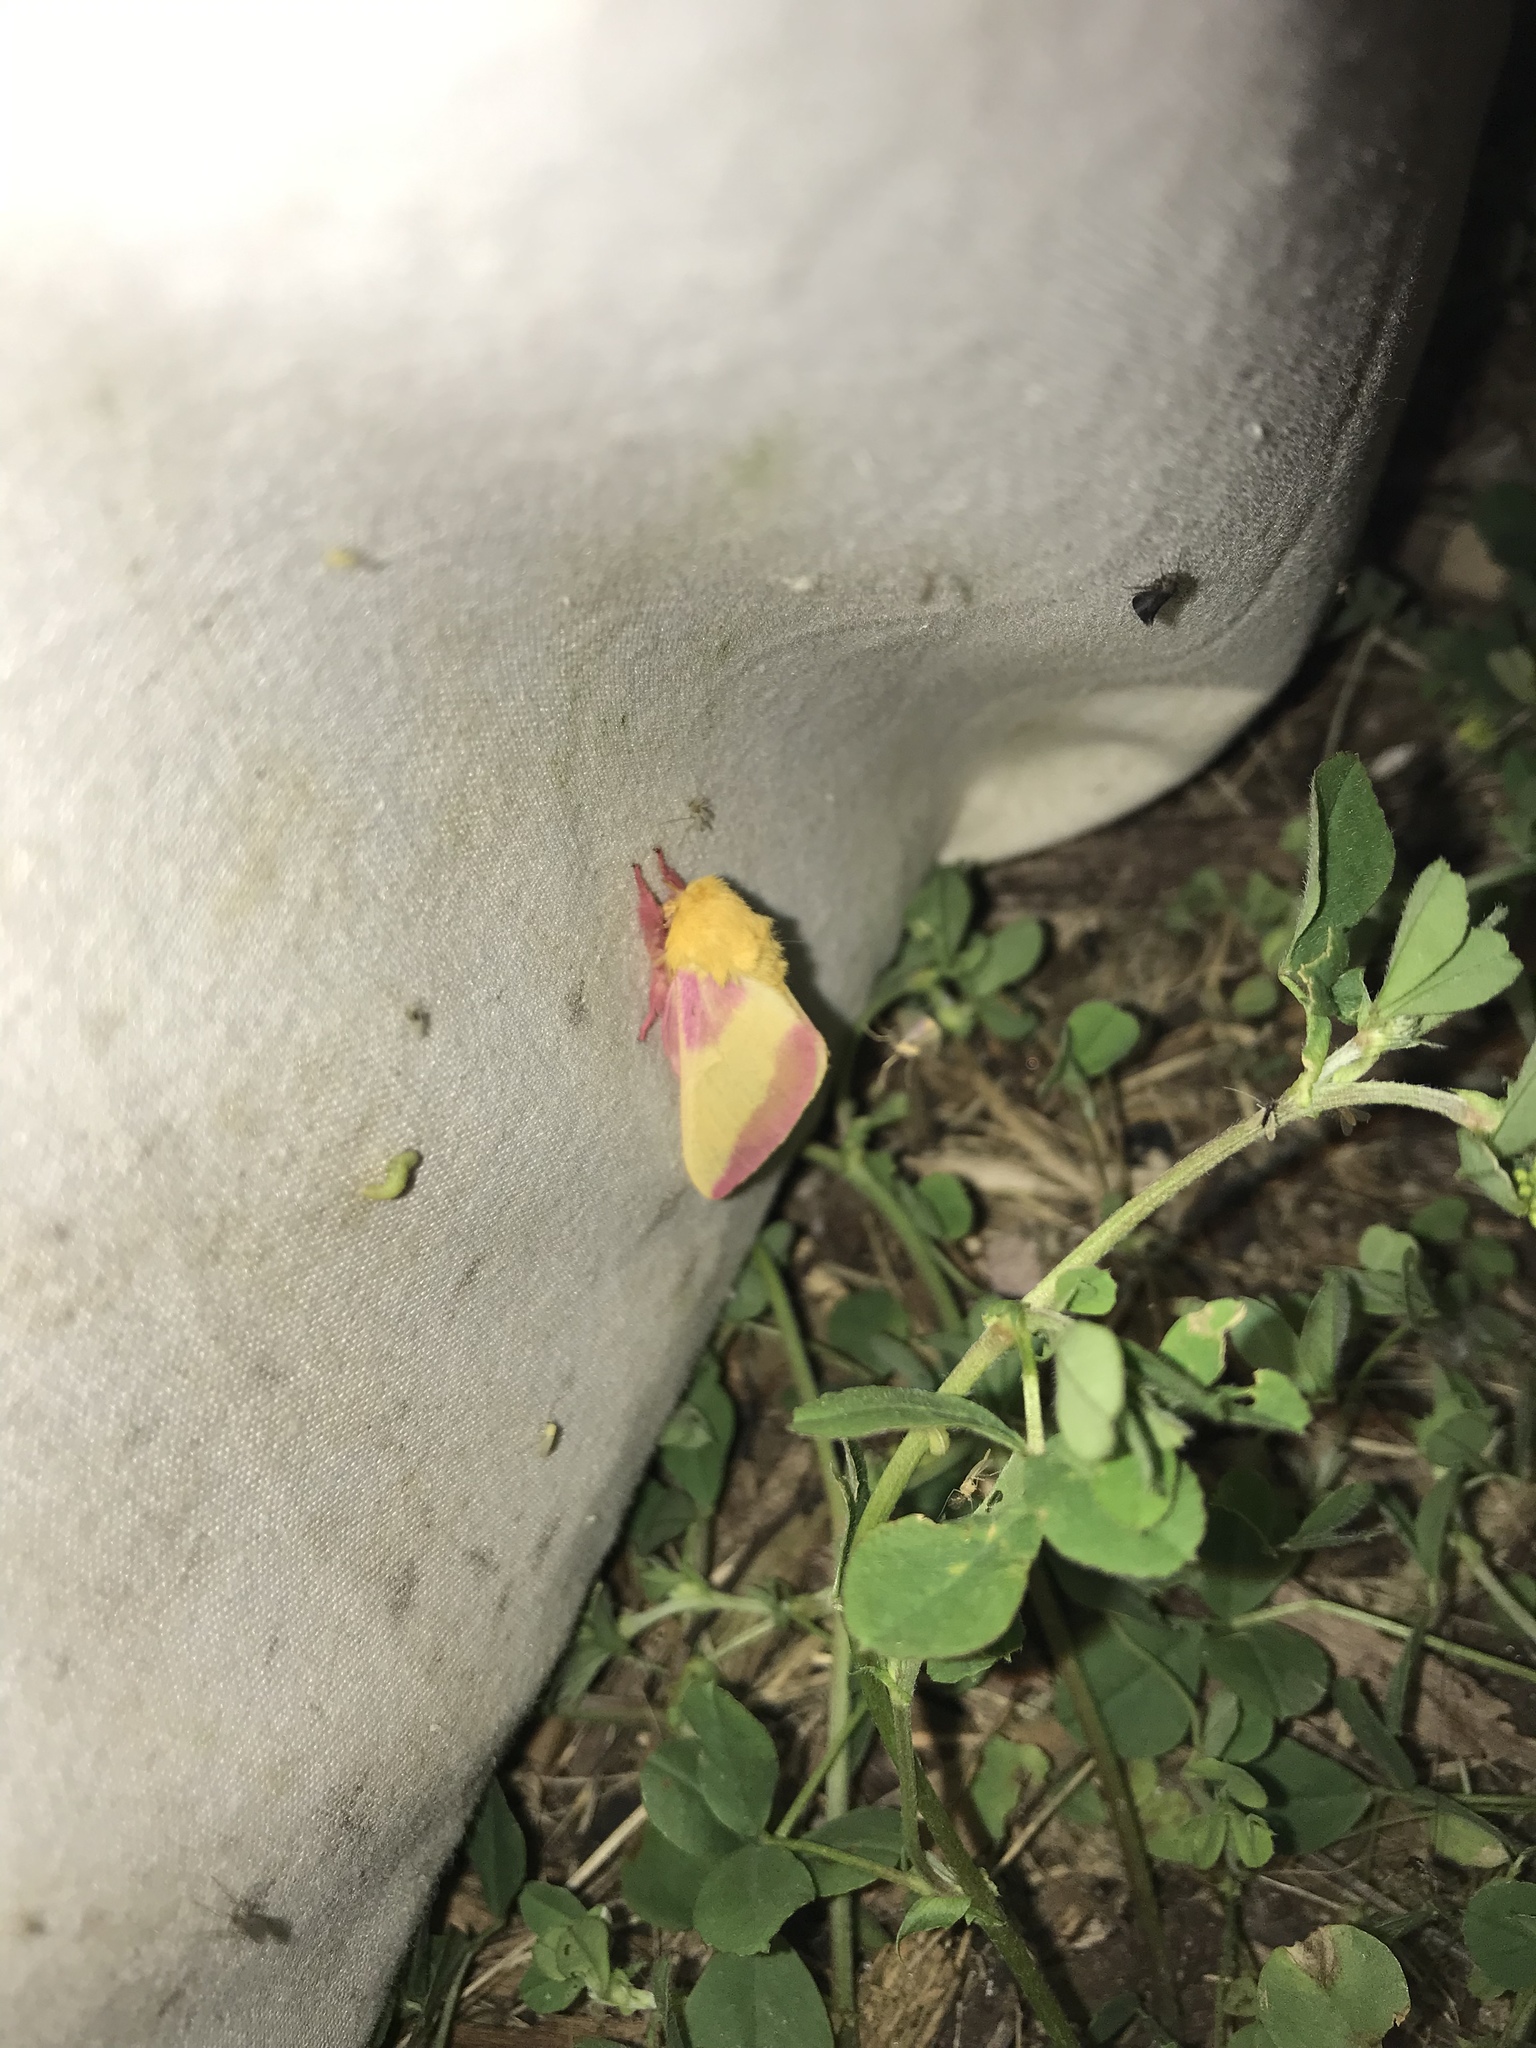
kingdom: Animalia
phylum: Arthropoda
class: Insecta
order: Lepidoptera
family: Saturniidae
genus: Dryocampa
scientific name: Dryocampa rubicunda
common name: Rosy maple moth
